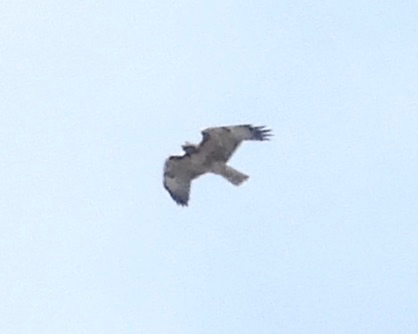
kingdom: Animalia
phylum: Chordata
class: Aves
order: Accipitriformes
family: Accipitridae
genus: Buteo
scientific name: Buteo jamaicensis
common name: Red-tailed hawk
